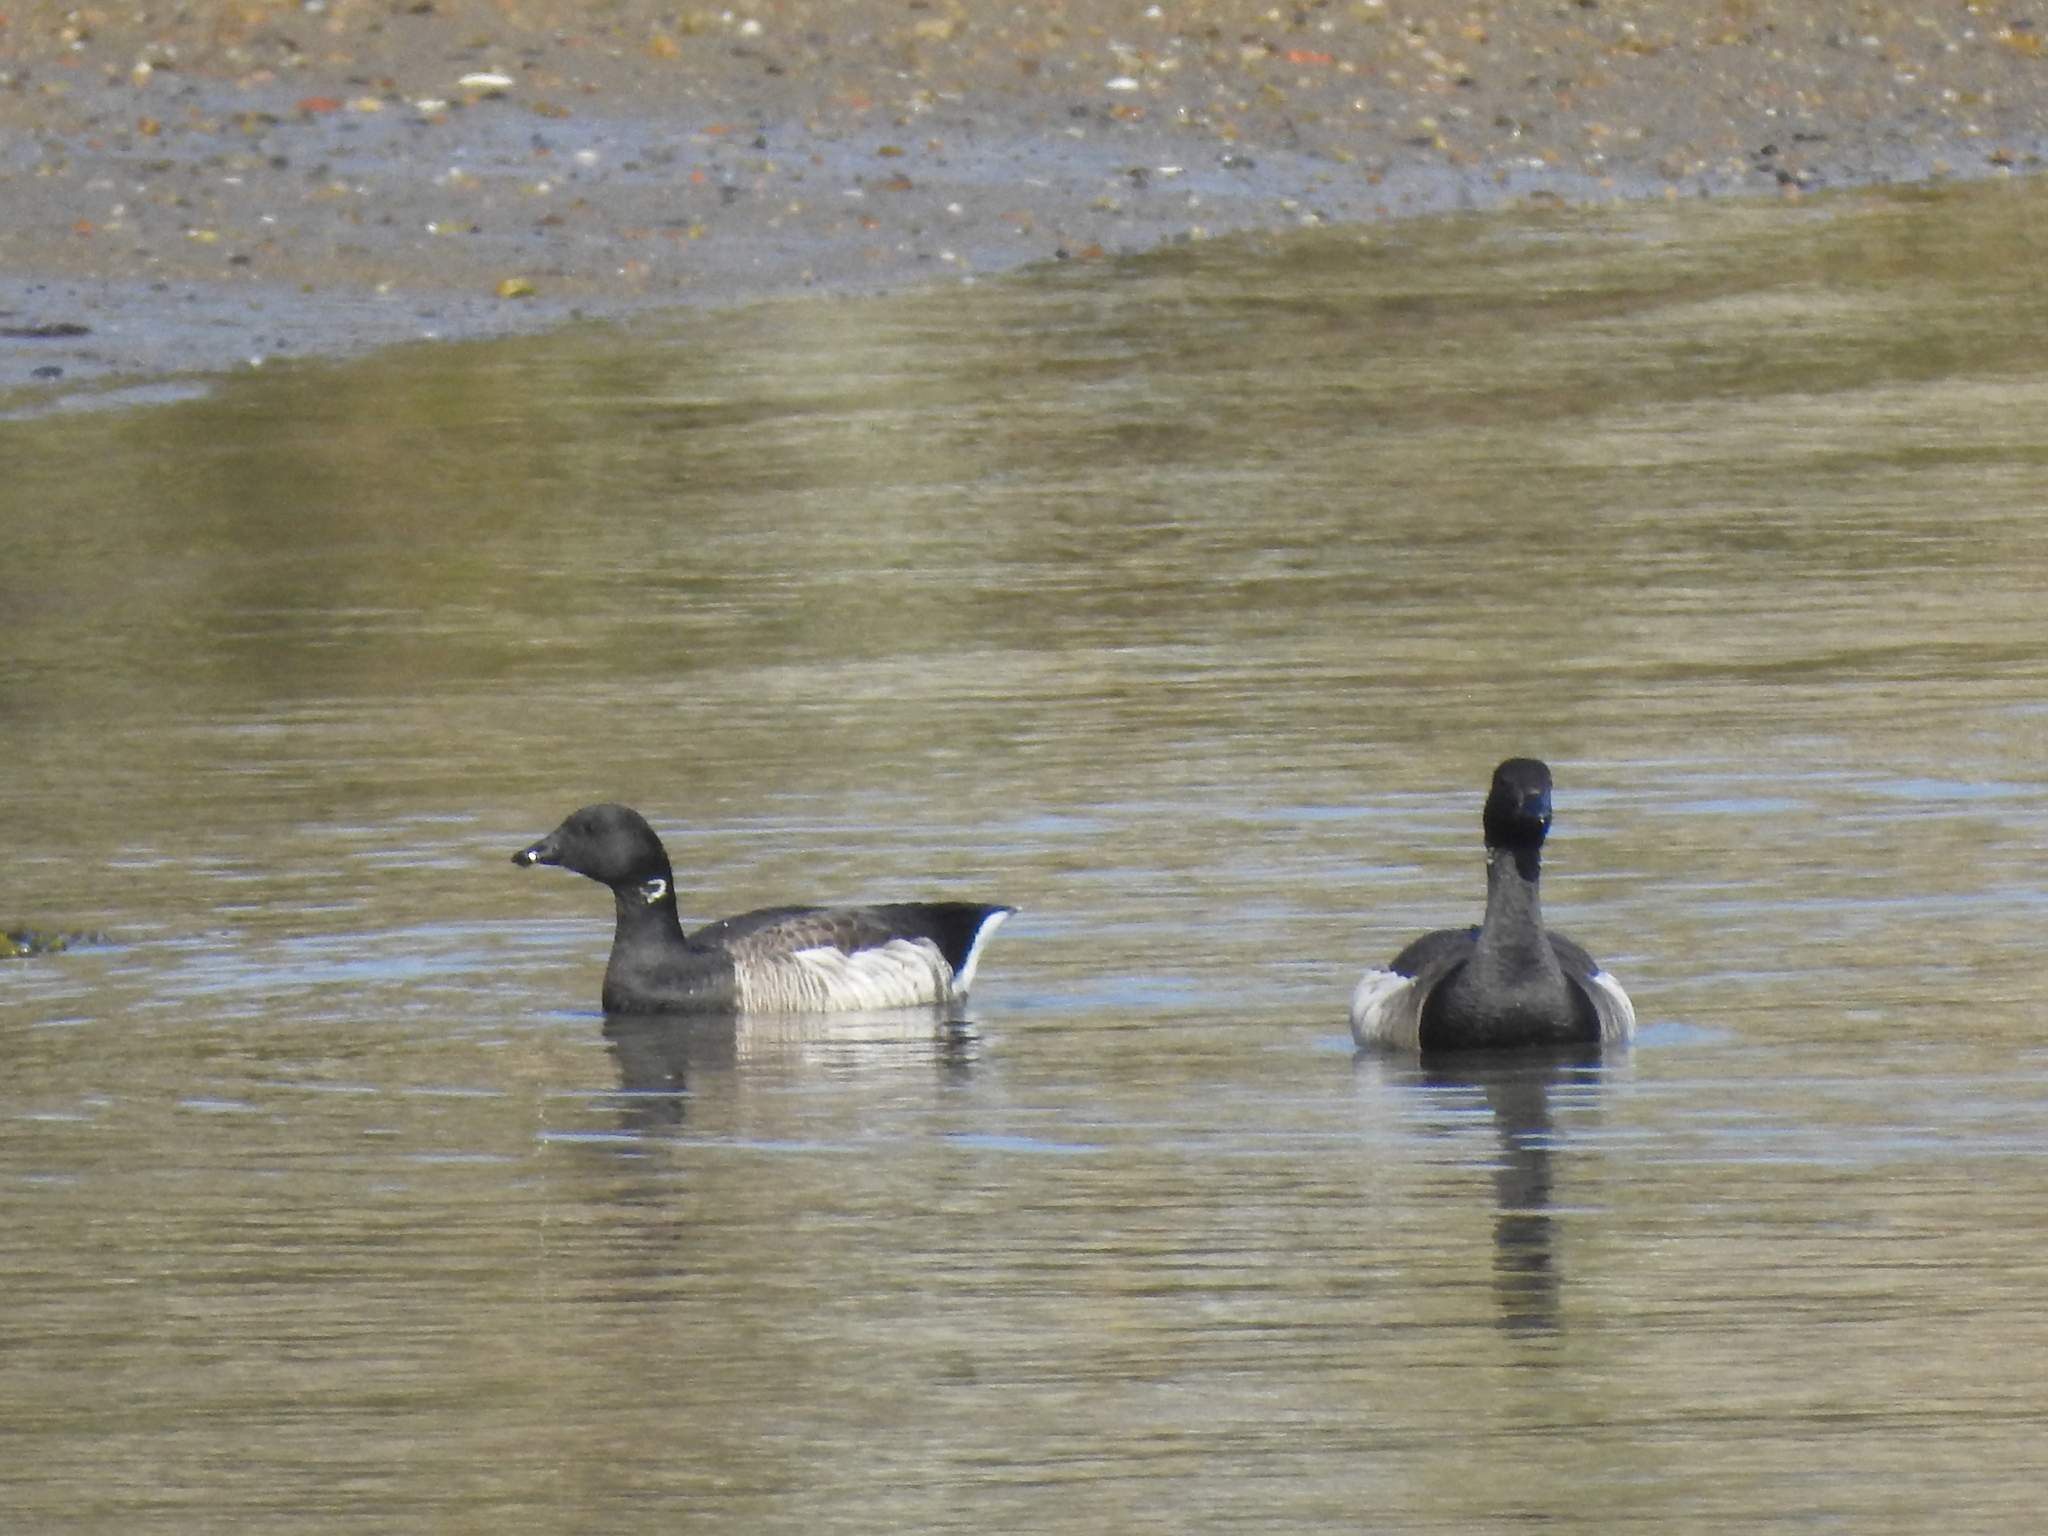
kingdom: Animalia
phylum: Chordata
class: Aves
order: Anseriformes
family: Anatidae
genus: Branta
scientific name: Branta bernicla
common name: Brant goose
